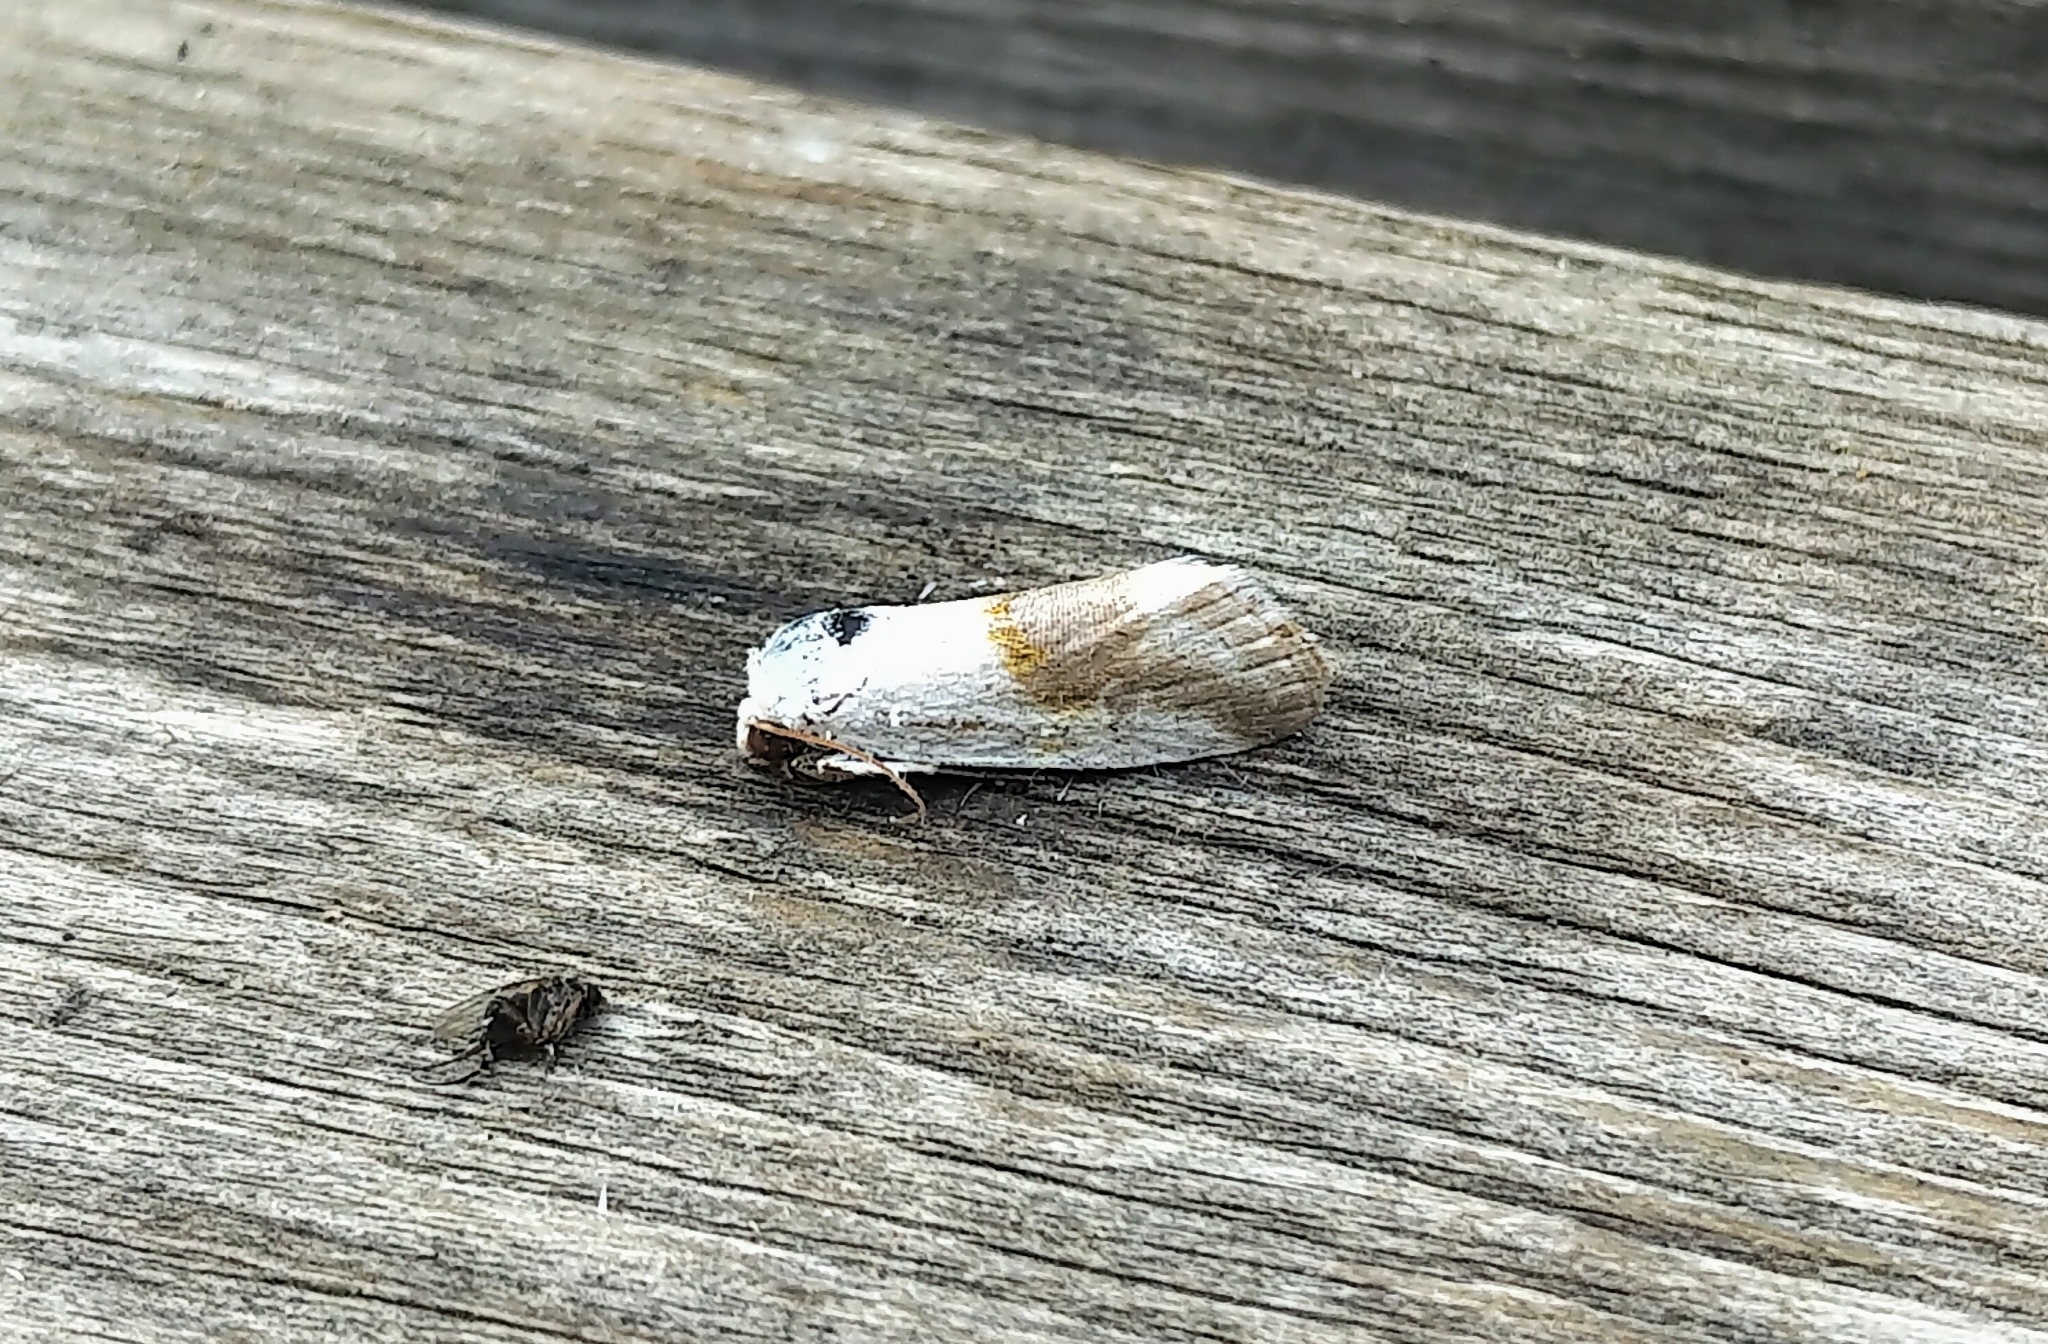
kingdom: Animalia
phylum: Arthropoda
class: Insecta
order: Lepidoptera
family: Noctuidae
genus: Acontia
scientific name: Acontia binocula
